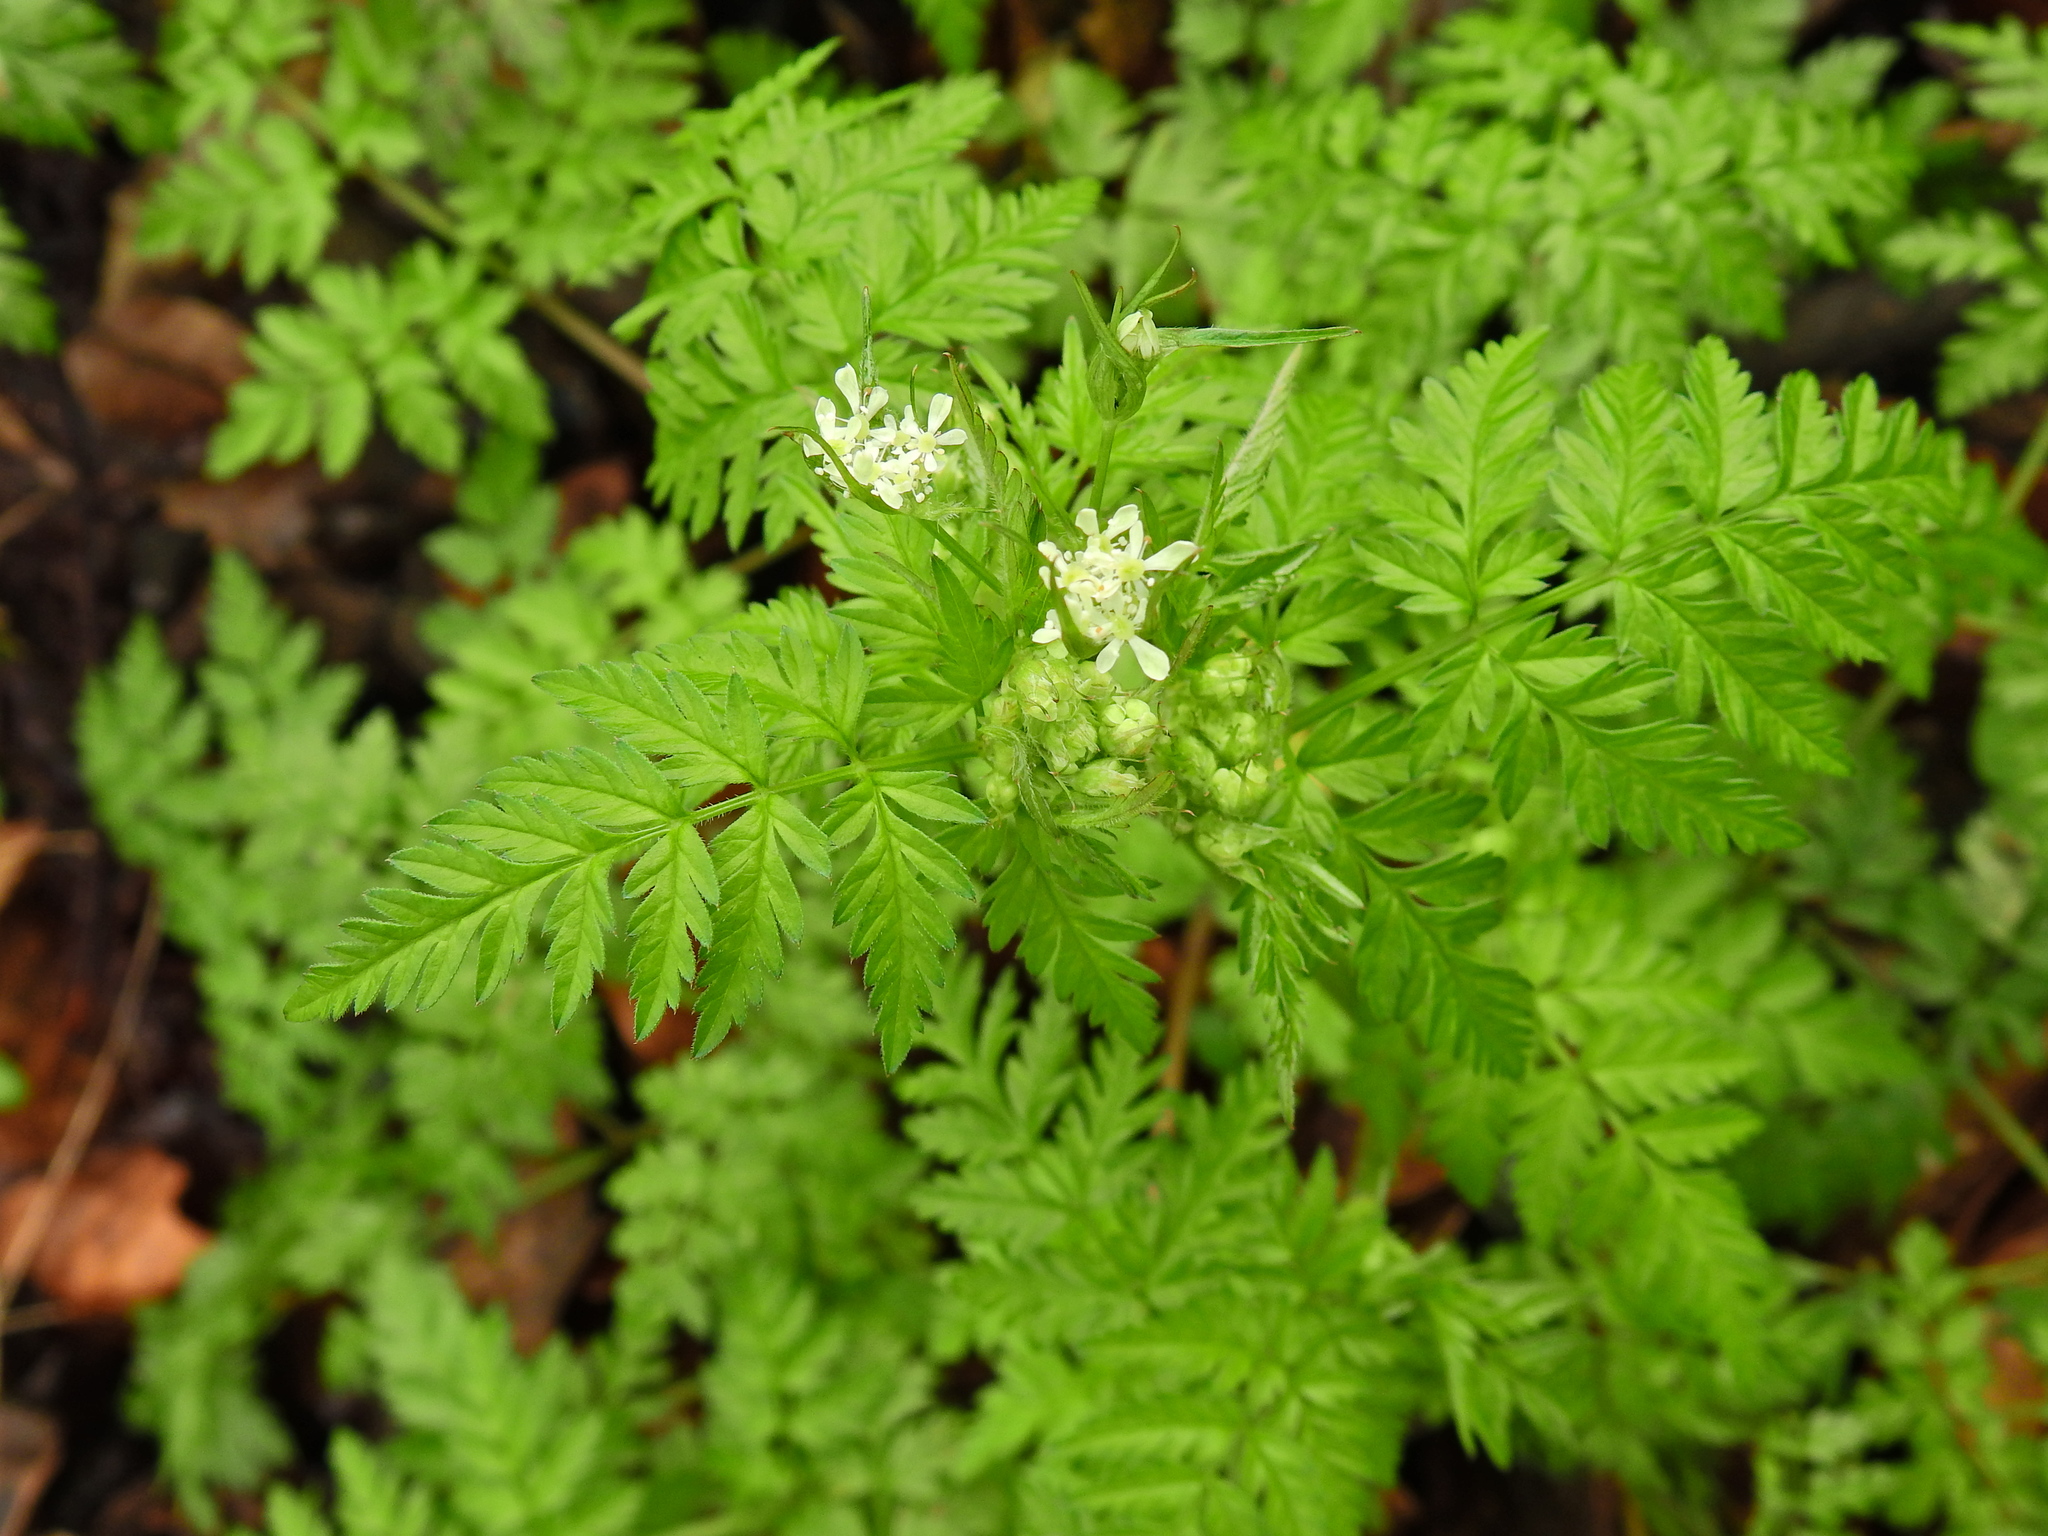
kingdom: Plantae
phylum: Tracheophyta
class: Magnoliopsida
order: Apiales
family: Apiaceae
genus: Anthriscus
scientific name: Anthriscus sylvestris
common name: Cow parsley
